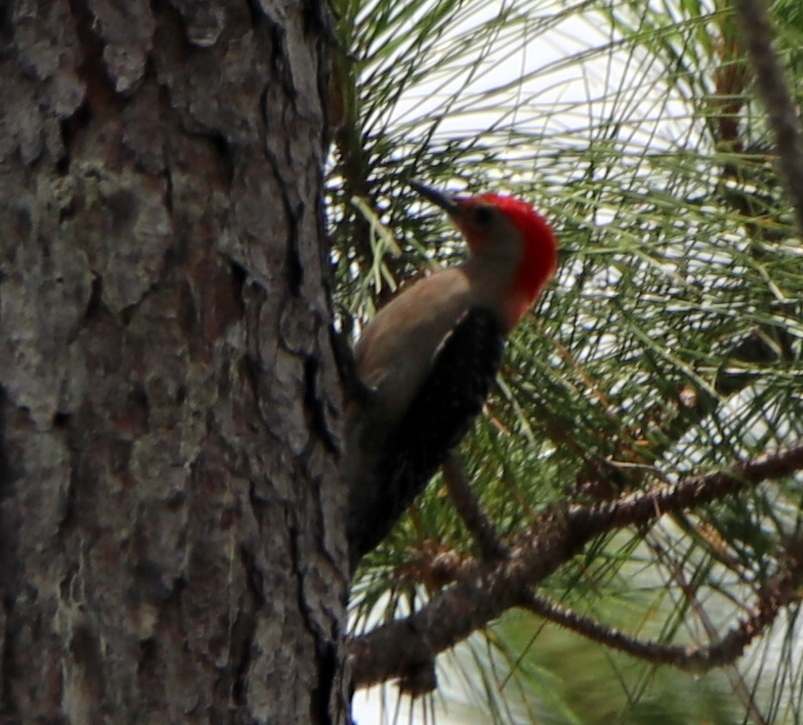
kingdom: Animalia
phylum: Chordata
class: Aves
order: Piciformes
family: Picidae
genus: Melanerpes
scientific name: Melanerpes carolinus
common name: Red-bellied woodpecker
